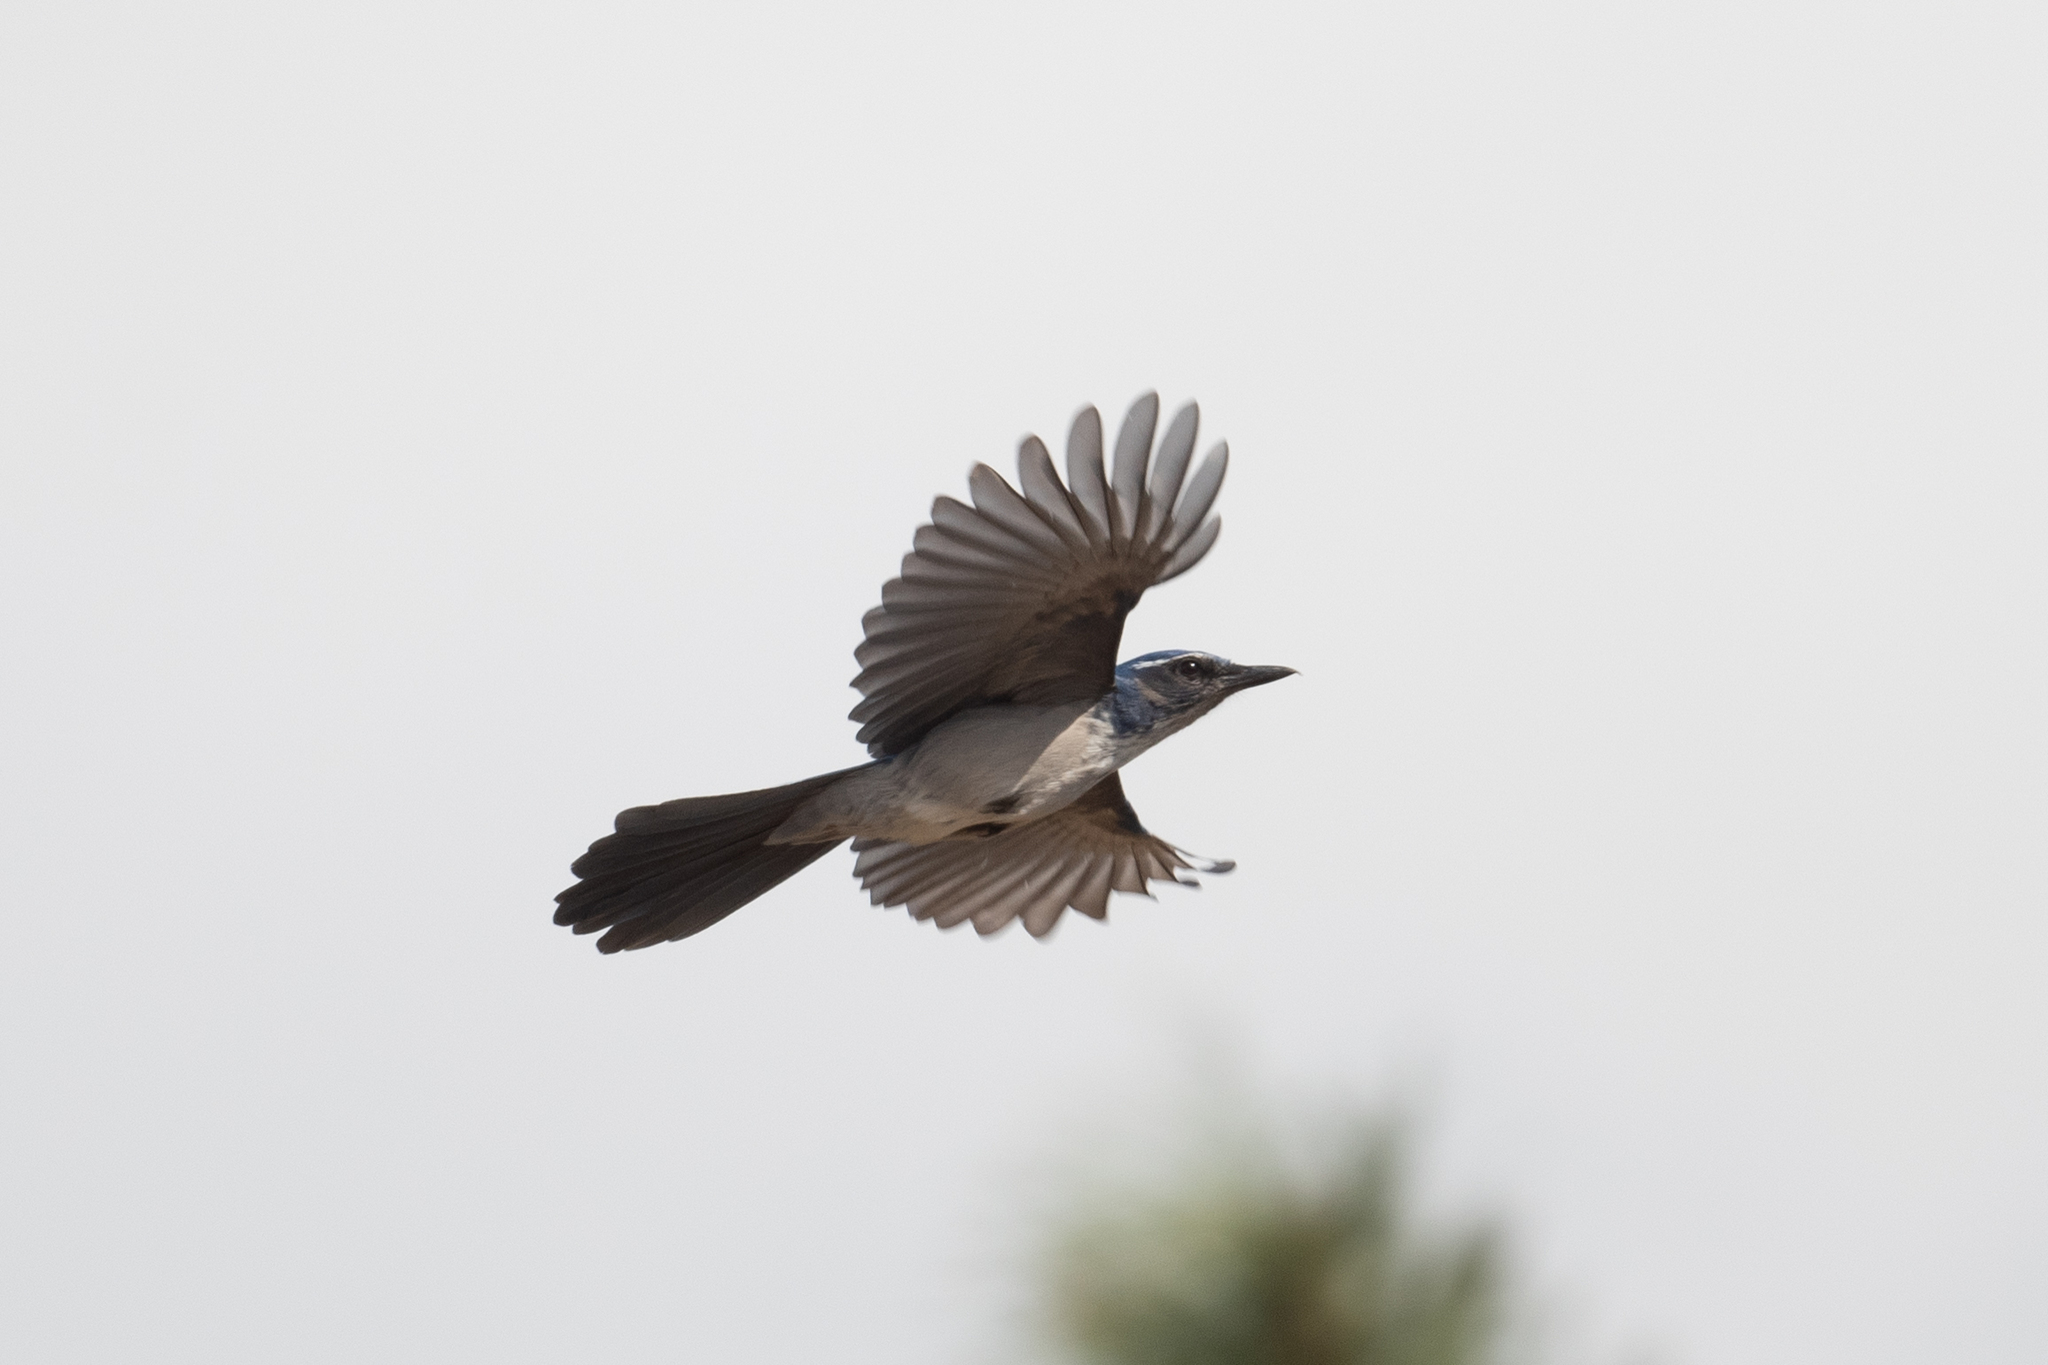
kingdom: Animalia
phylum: Chordata
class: Aves
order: Passeriformes
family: Corvidae
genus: Aphelocoma
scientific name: Aphelocoma californica
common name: California scrub-jay
